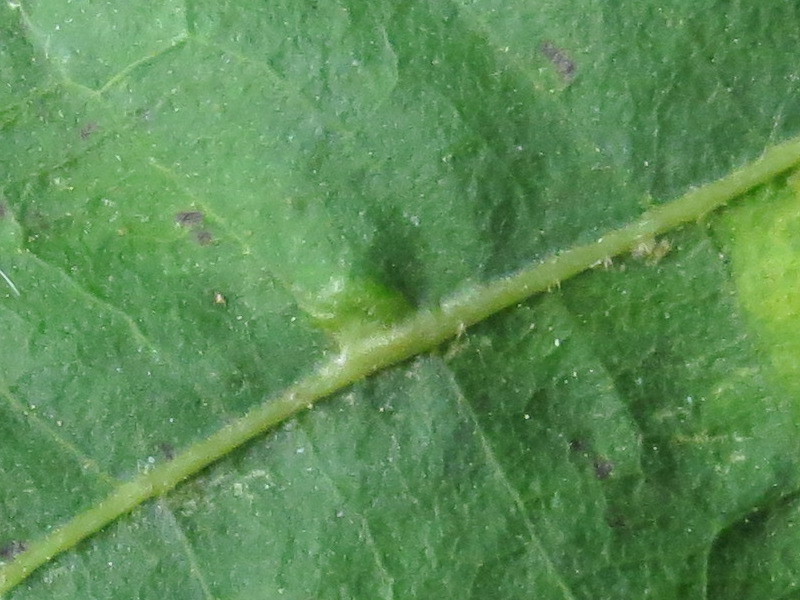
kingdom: Animalia
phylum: Arthropoda
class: Insecta
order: Diptera
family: Cecidomyiidae
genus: Caryomyia
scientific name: Caryomyia inclinata
